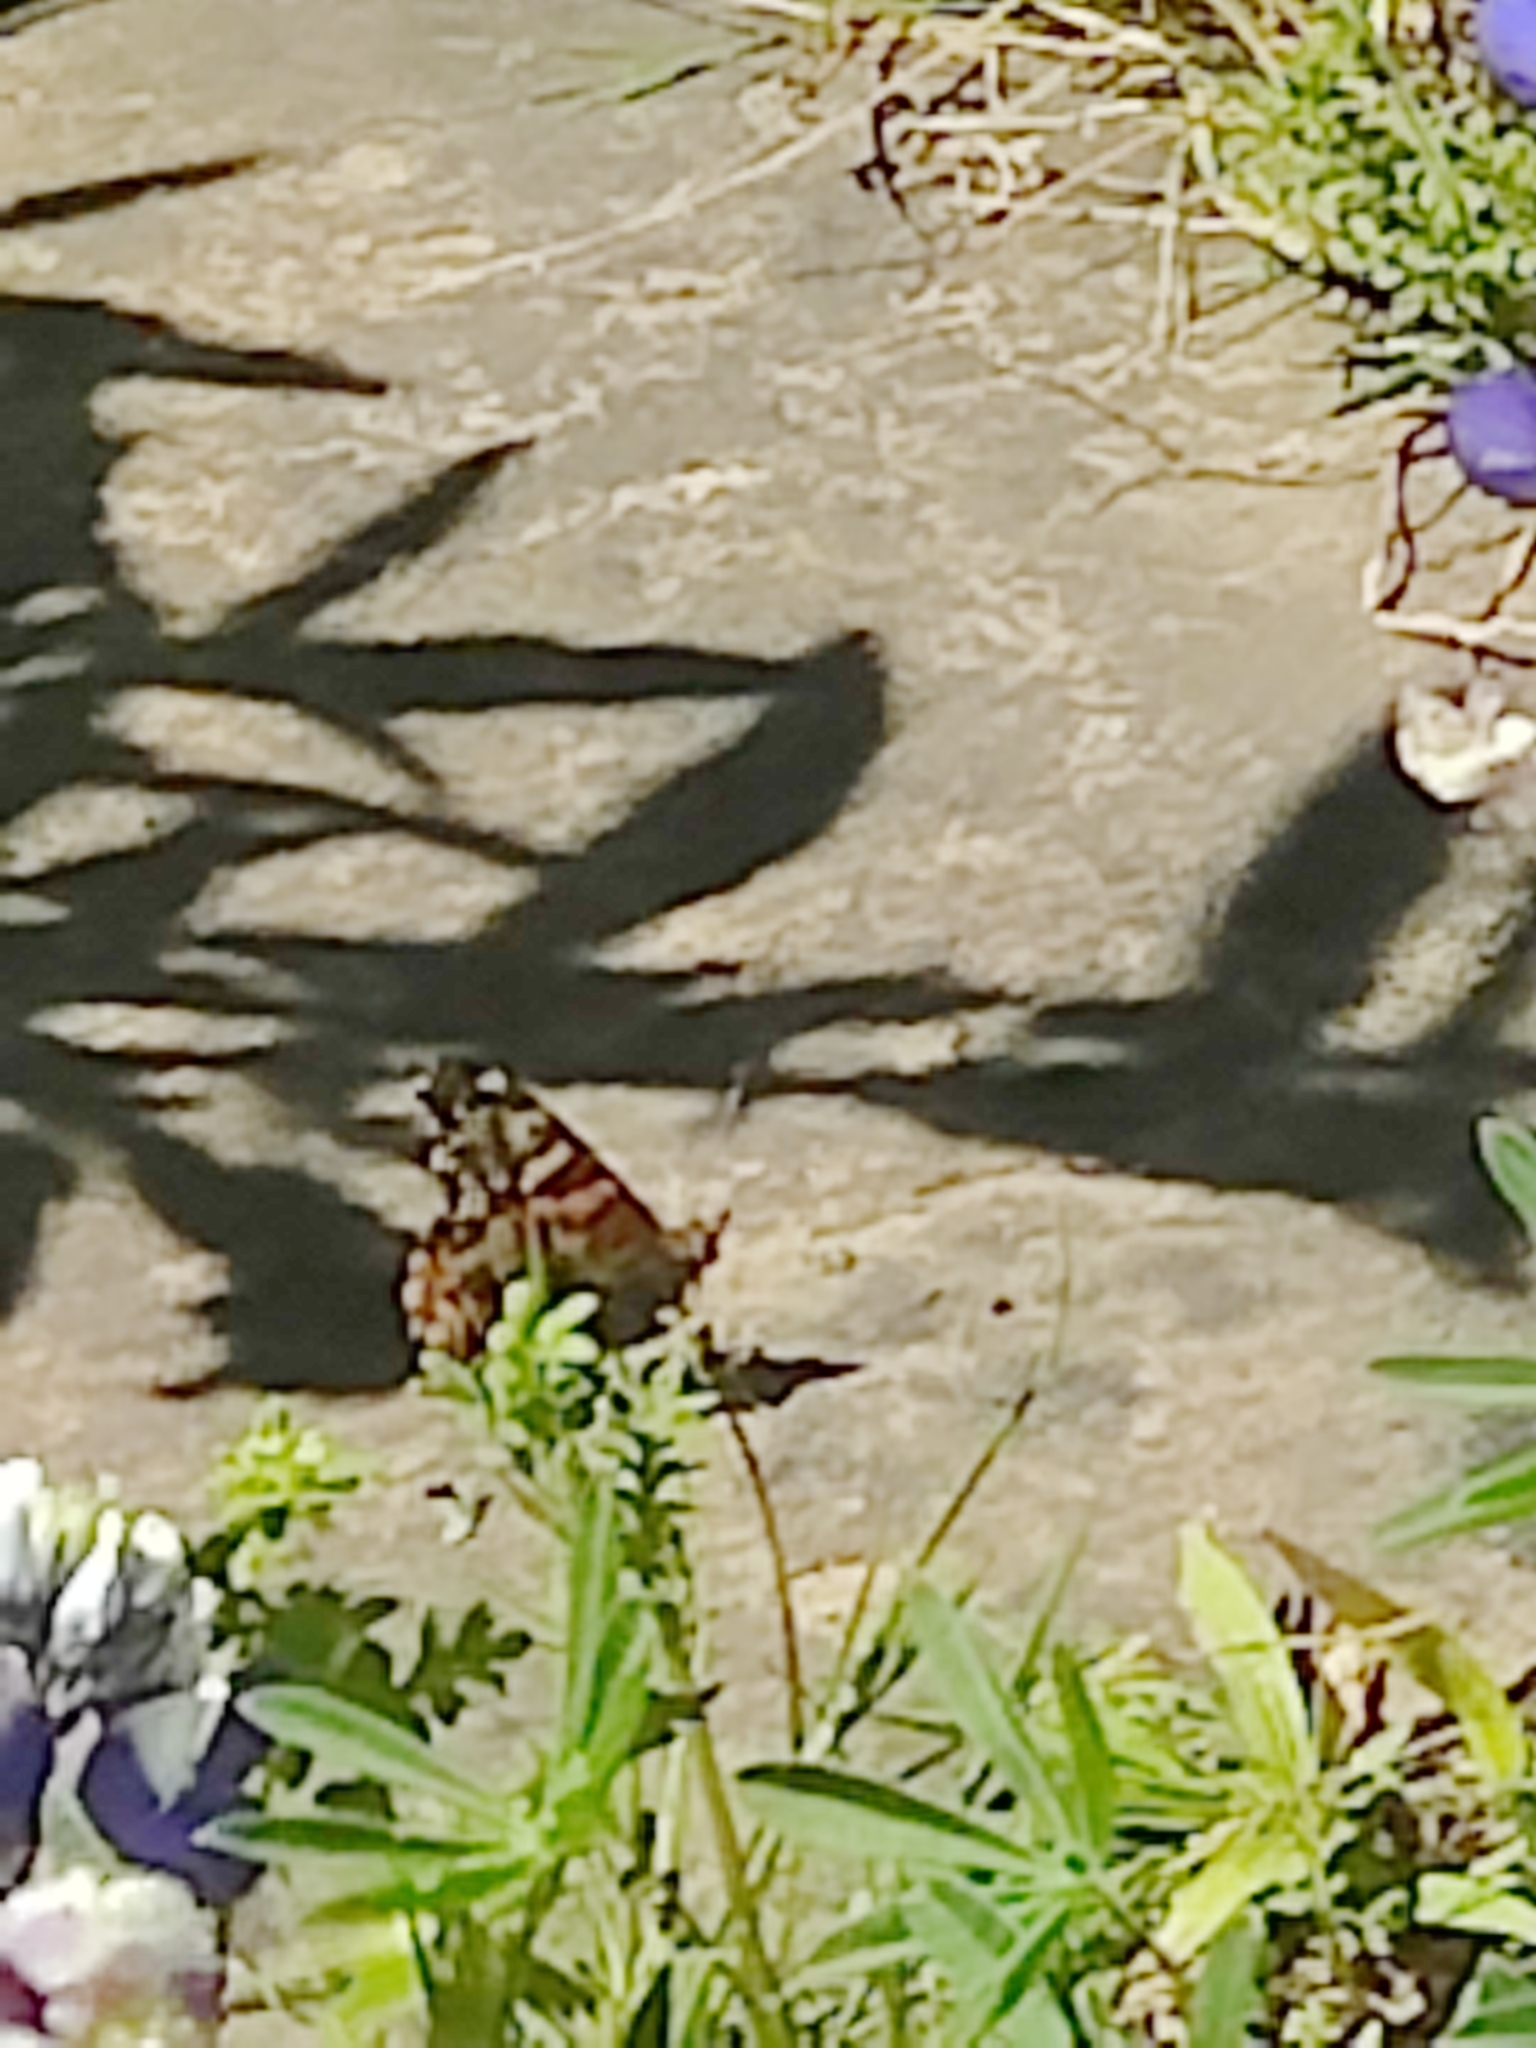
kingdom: Animalia
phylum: Arthropoda
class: Insecta
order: Lepidoptera
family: Nymphalidae
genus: Vanessa
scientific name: Vanessa annabella
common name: West coast lady
